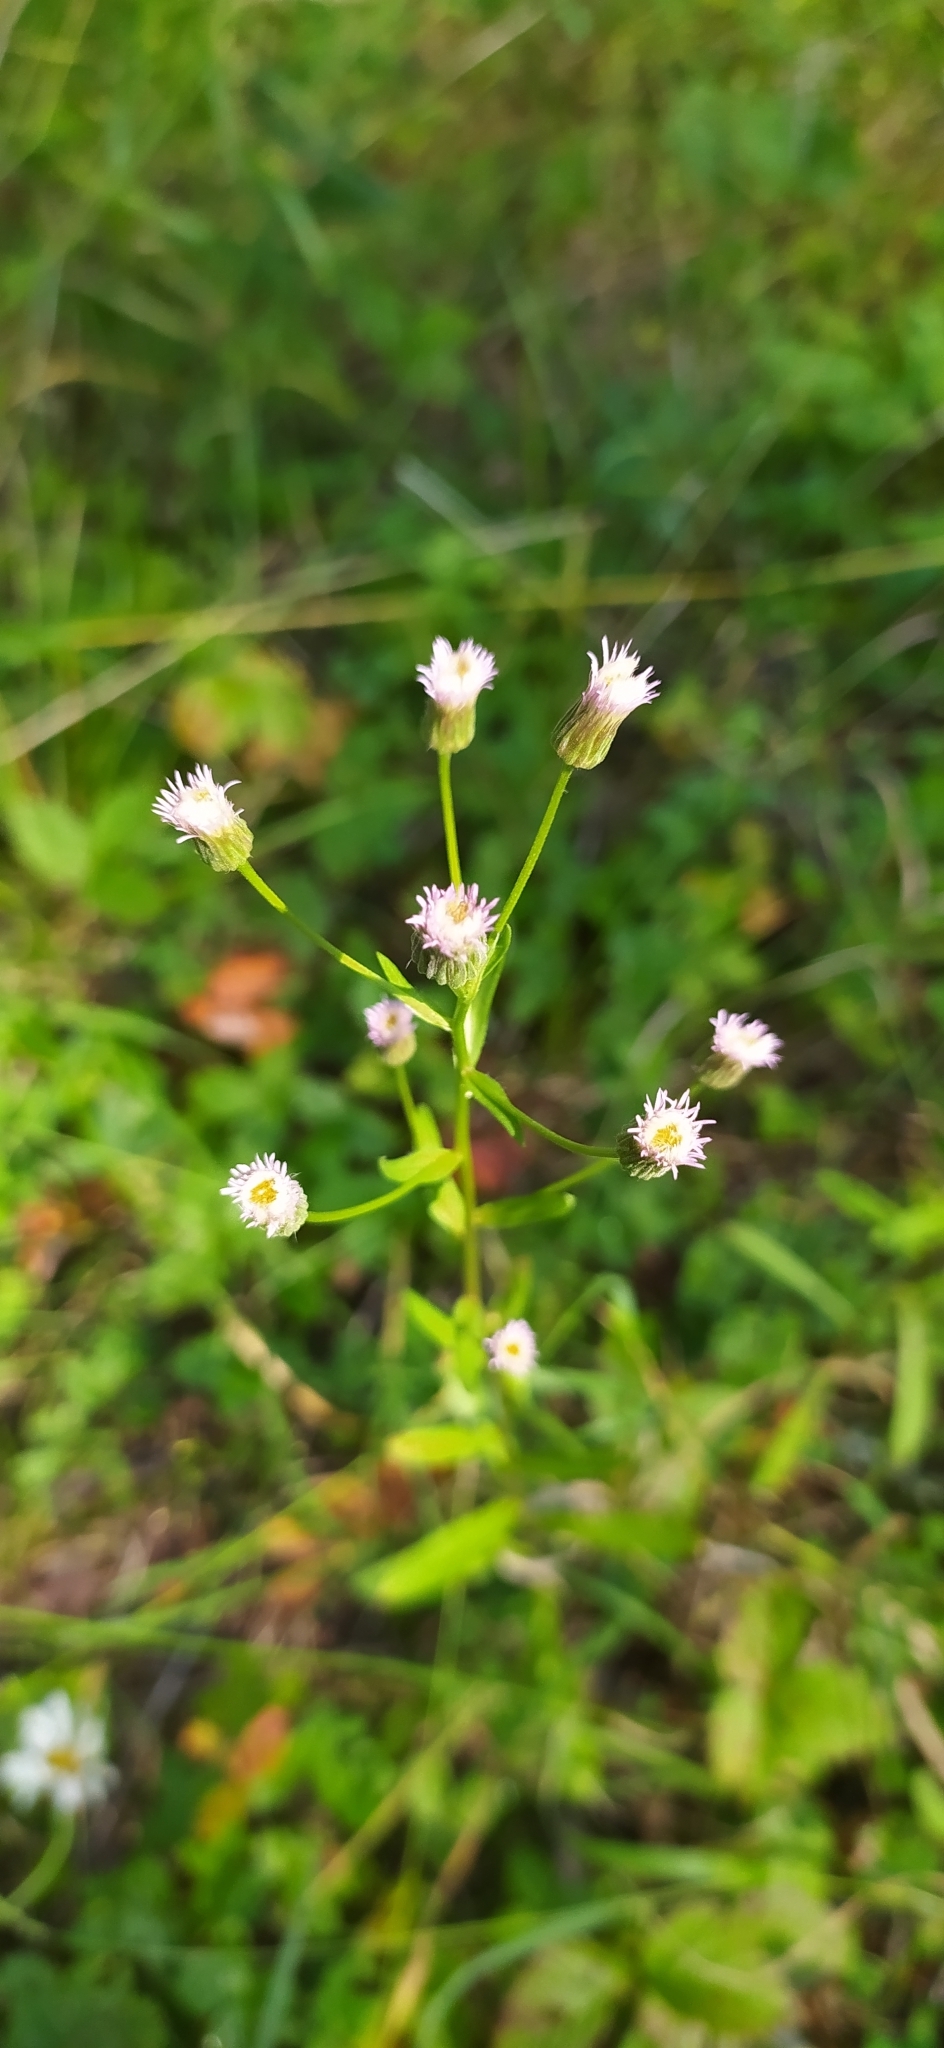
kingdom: Plantae
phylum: Tracheophyta
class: Magnoliopsida
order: Asterales
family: Asteraceae
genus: Erigeron
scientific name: Erigeron acris
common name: Blue fleabane
